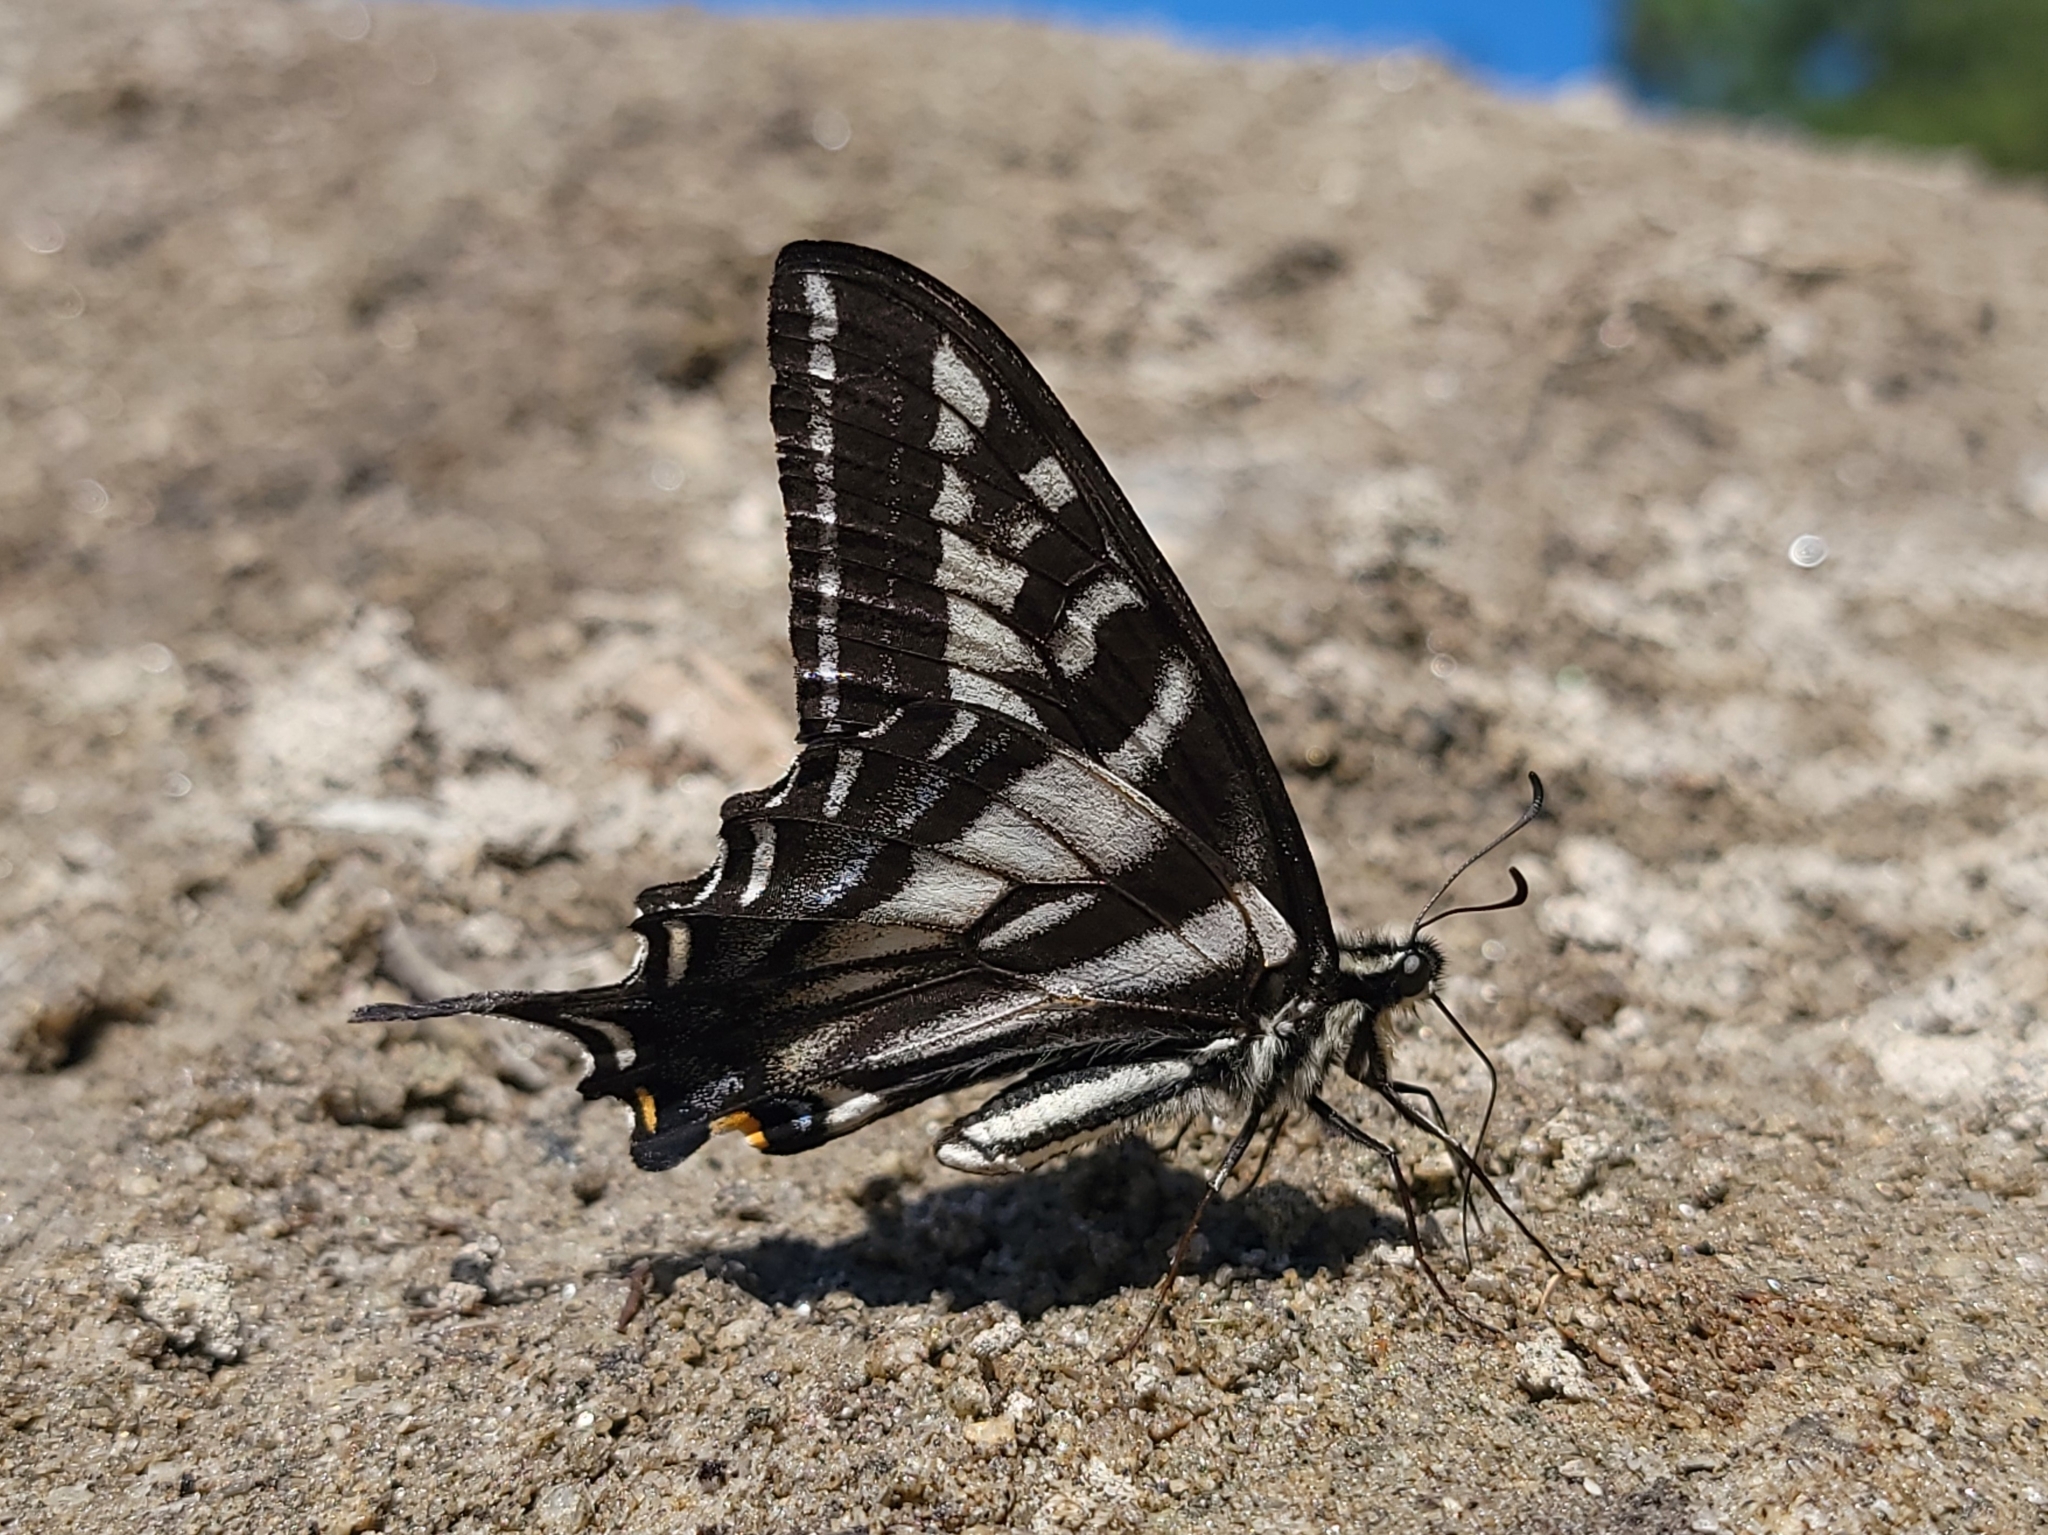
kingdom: Animalia
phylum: Arthropoda
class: Insecta
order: Lepidoptera
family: Papilionidae
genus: Papilio
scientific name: Papilio eurymedon
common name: Pale tiger swallowtail
